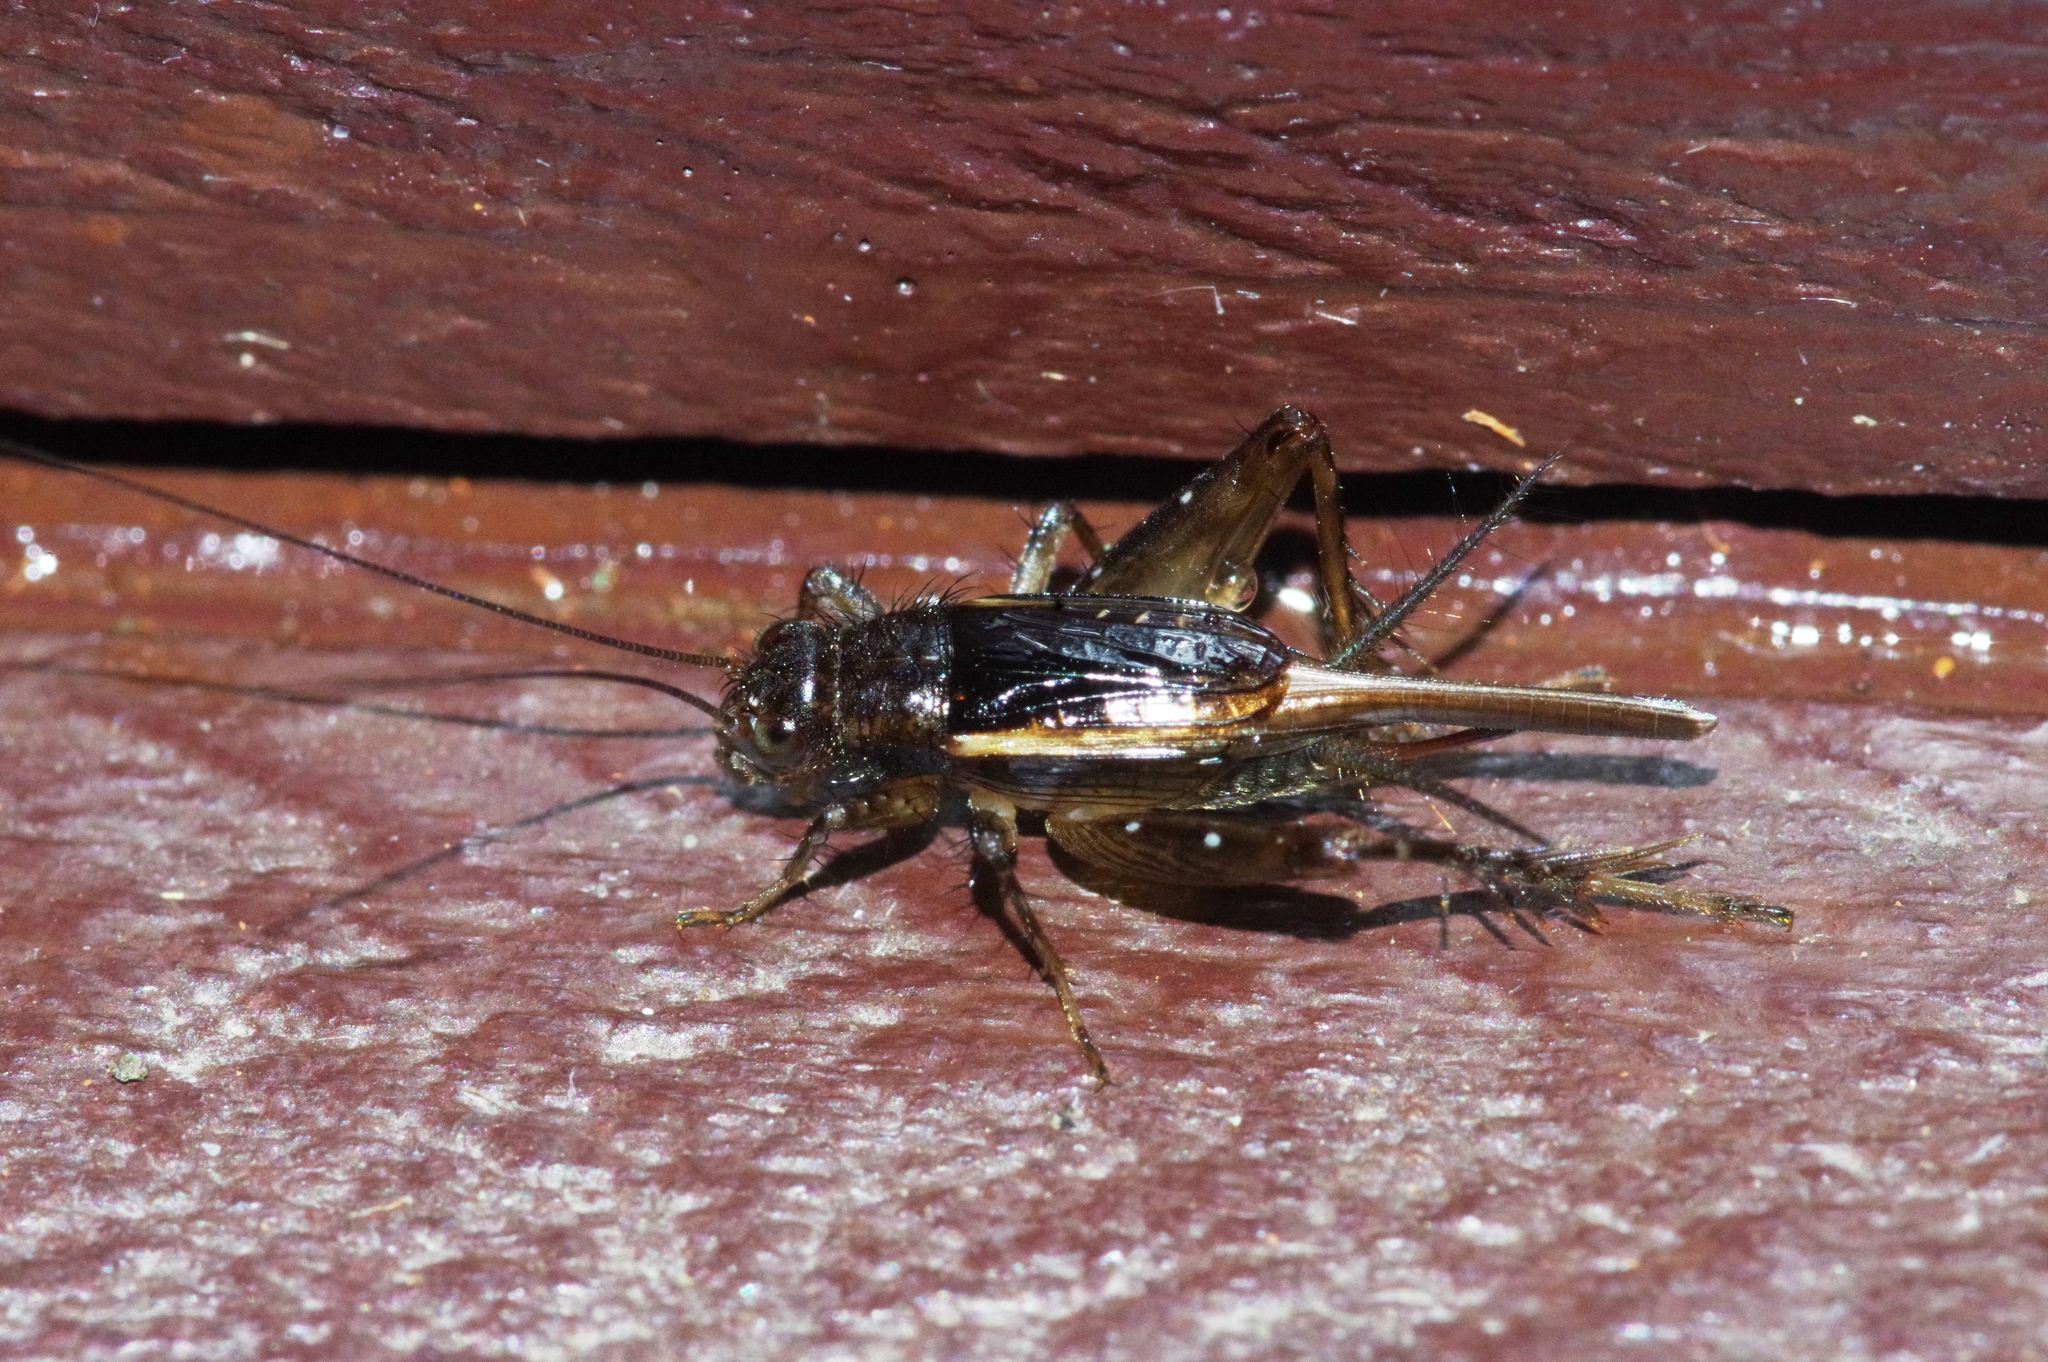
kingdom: Animalia
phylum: Arthropoda
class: Insecta
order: Orthoptera
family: Trigonidiidae
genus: Pteronemobius
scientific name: Pteronemobius indicus
